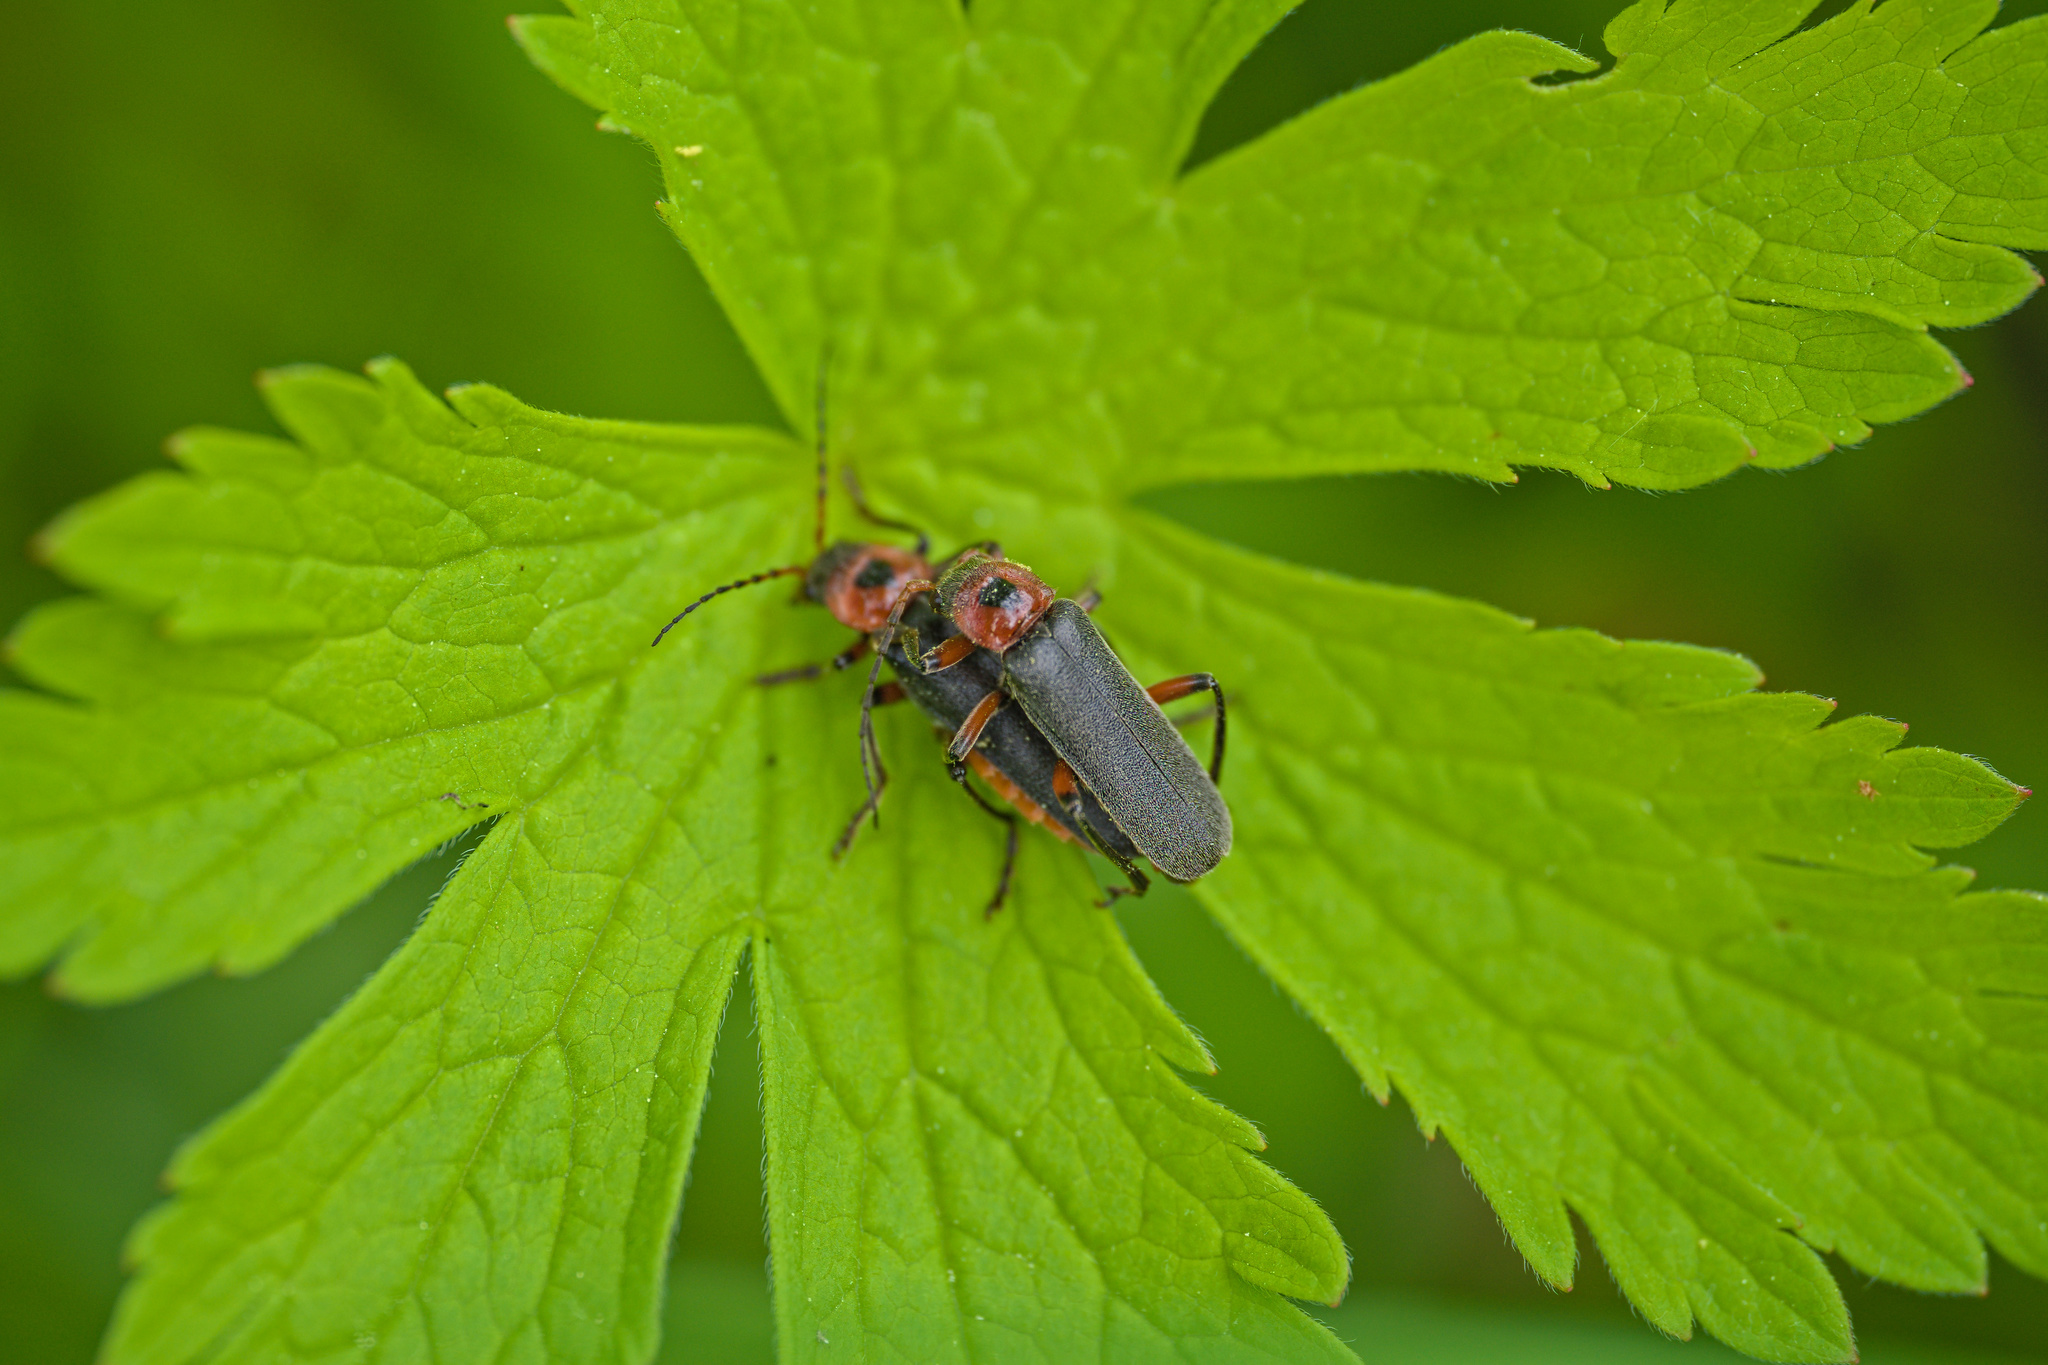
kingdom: Animalia
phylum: Arthropoda
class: Insecta
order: Coleoptera
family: Cantharidae
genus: Cantharis
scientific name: Cantharis rustica
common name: Soldier beetle
